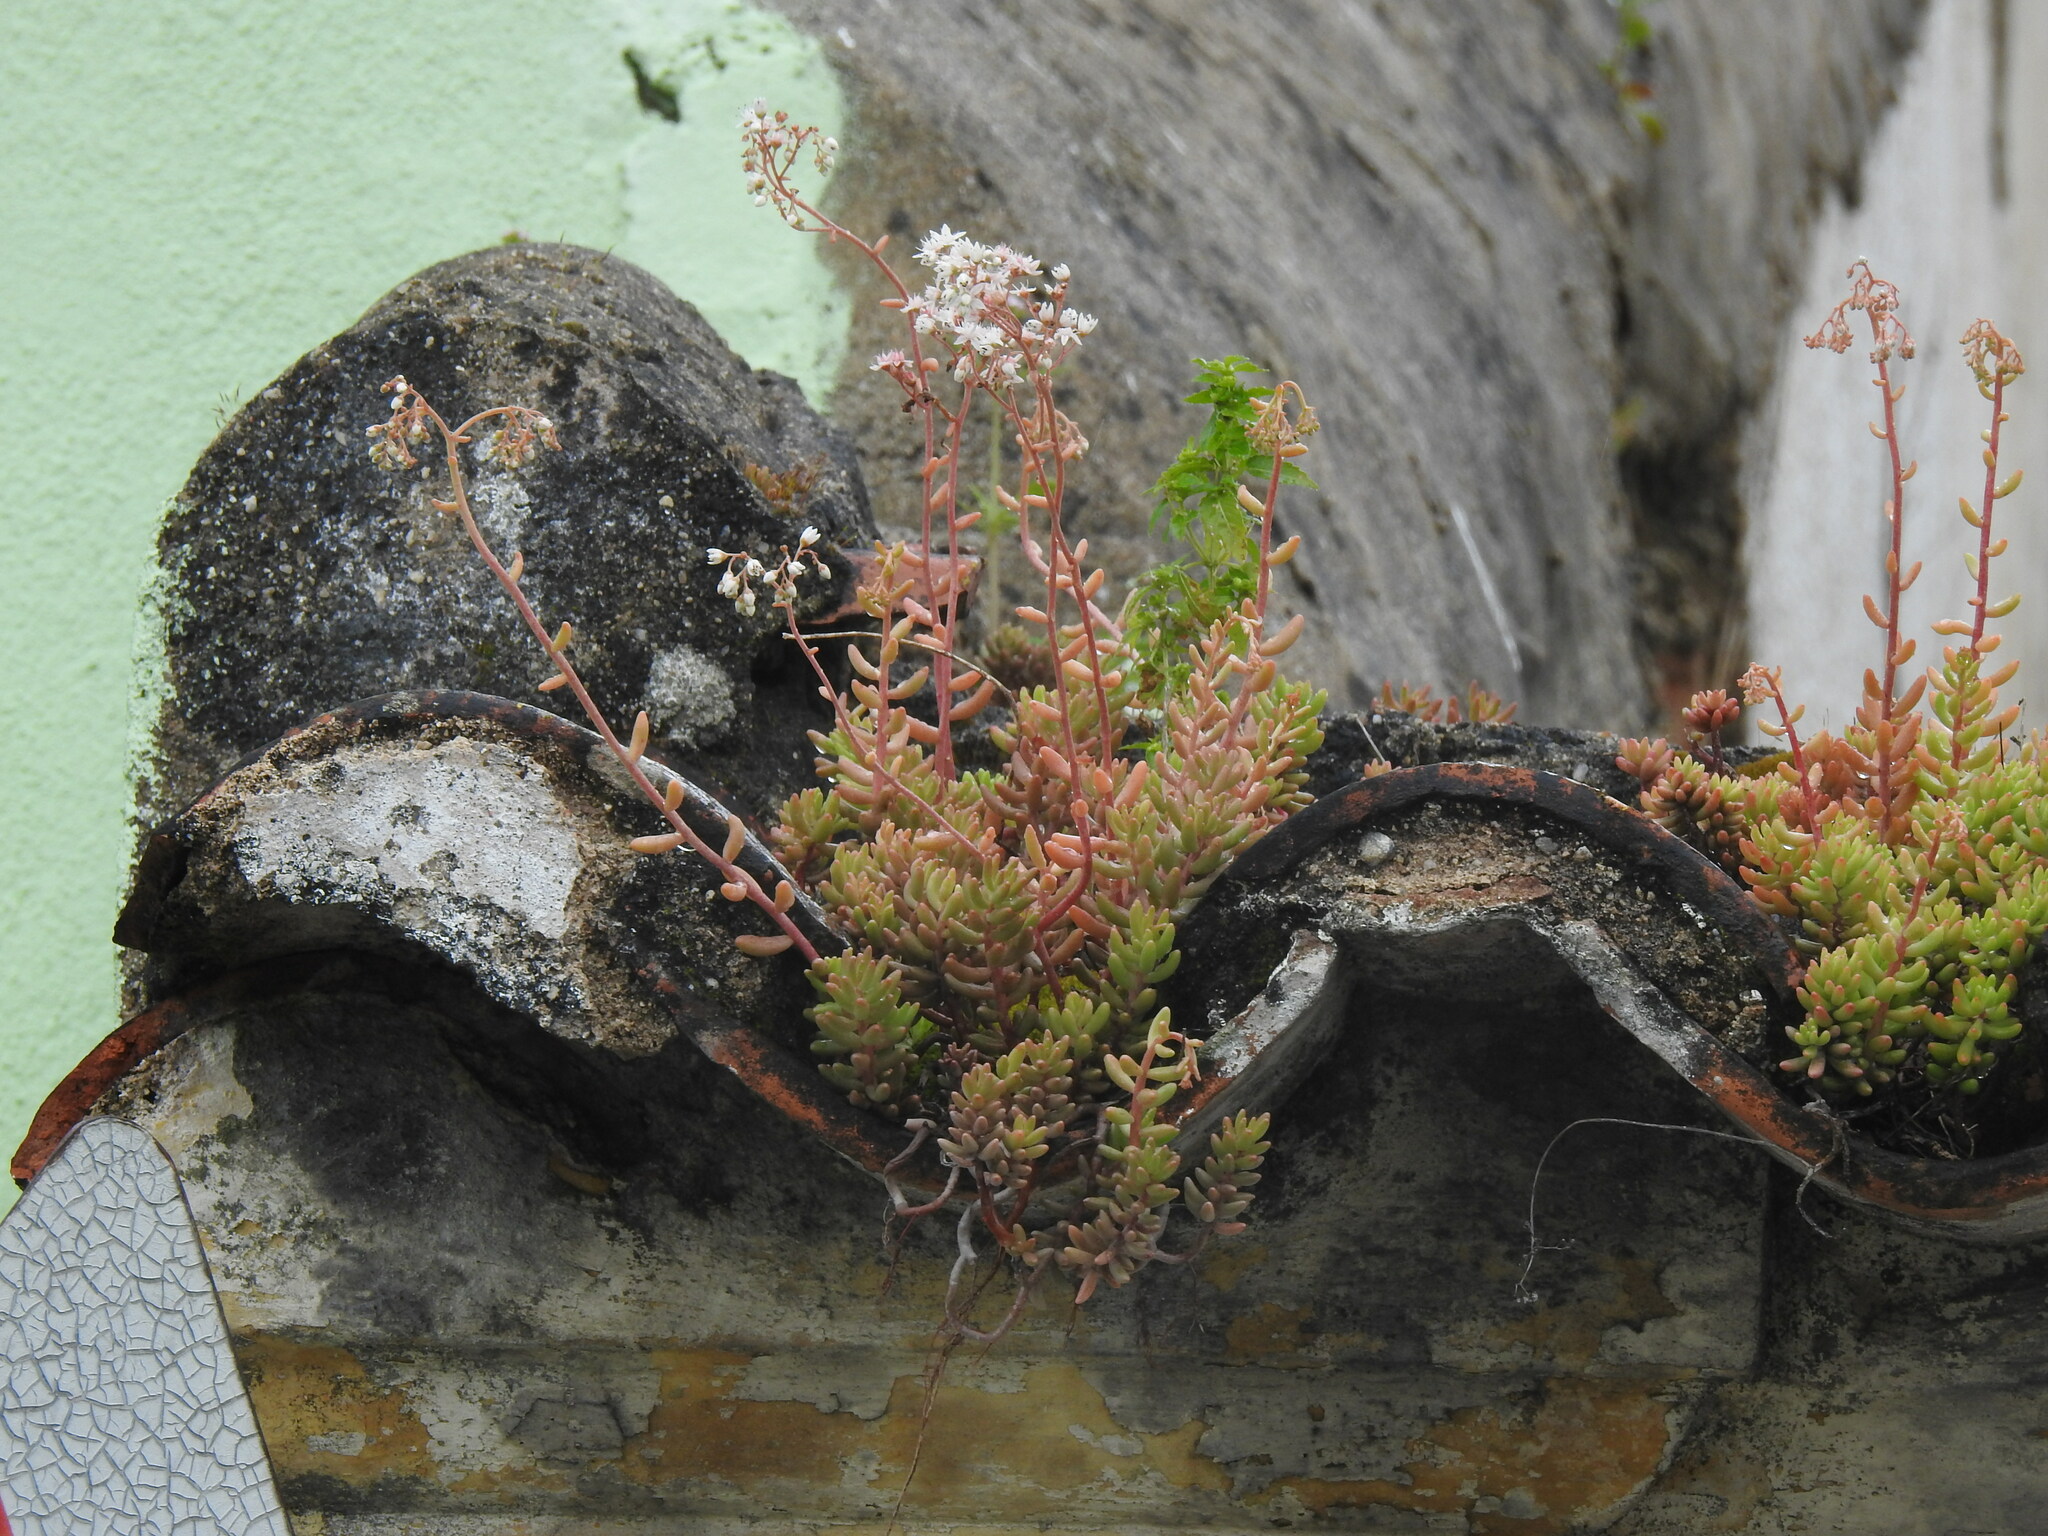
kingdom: Plantae
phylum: Tracheophyta
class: Magnoliopsida
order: Saxifragales
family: Crassulaceae
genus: Sedum
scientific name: Sedum album
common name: White stonecrop
